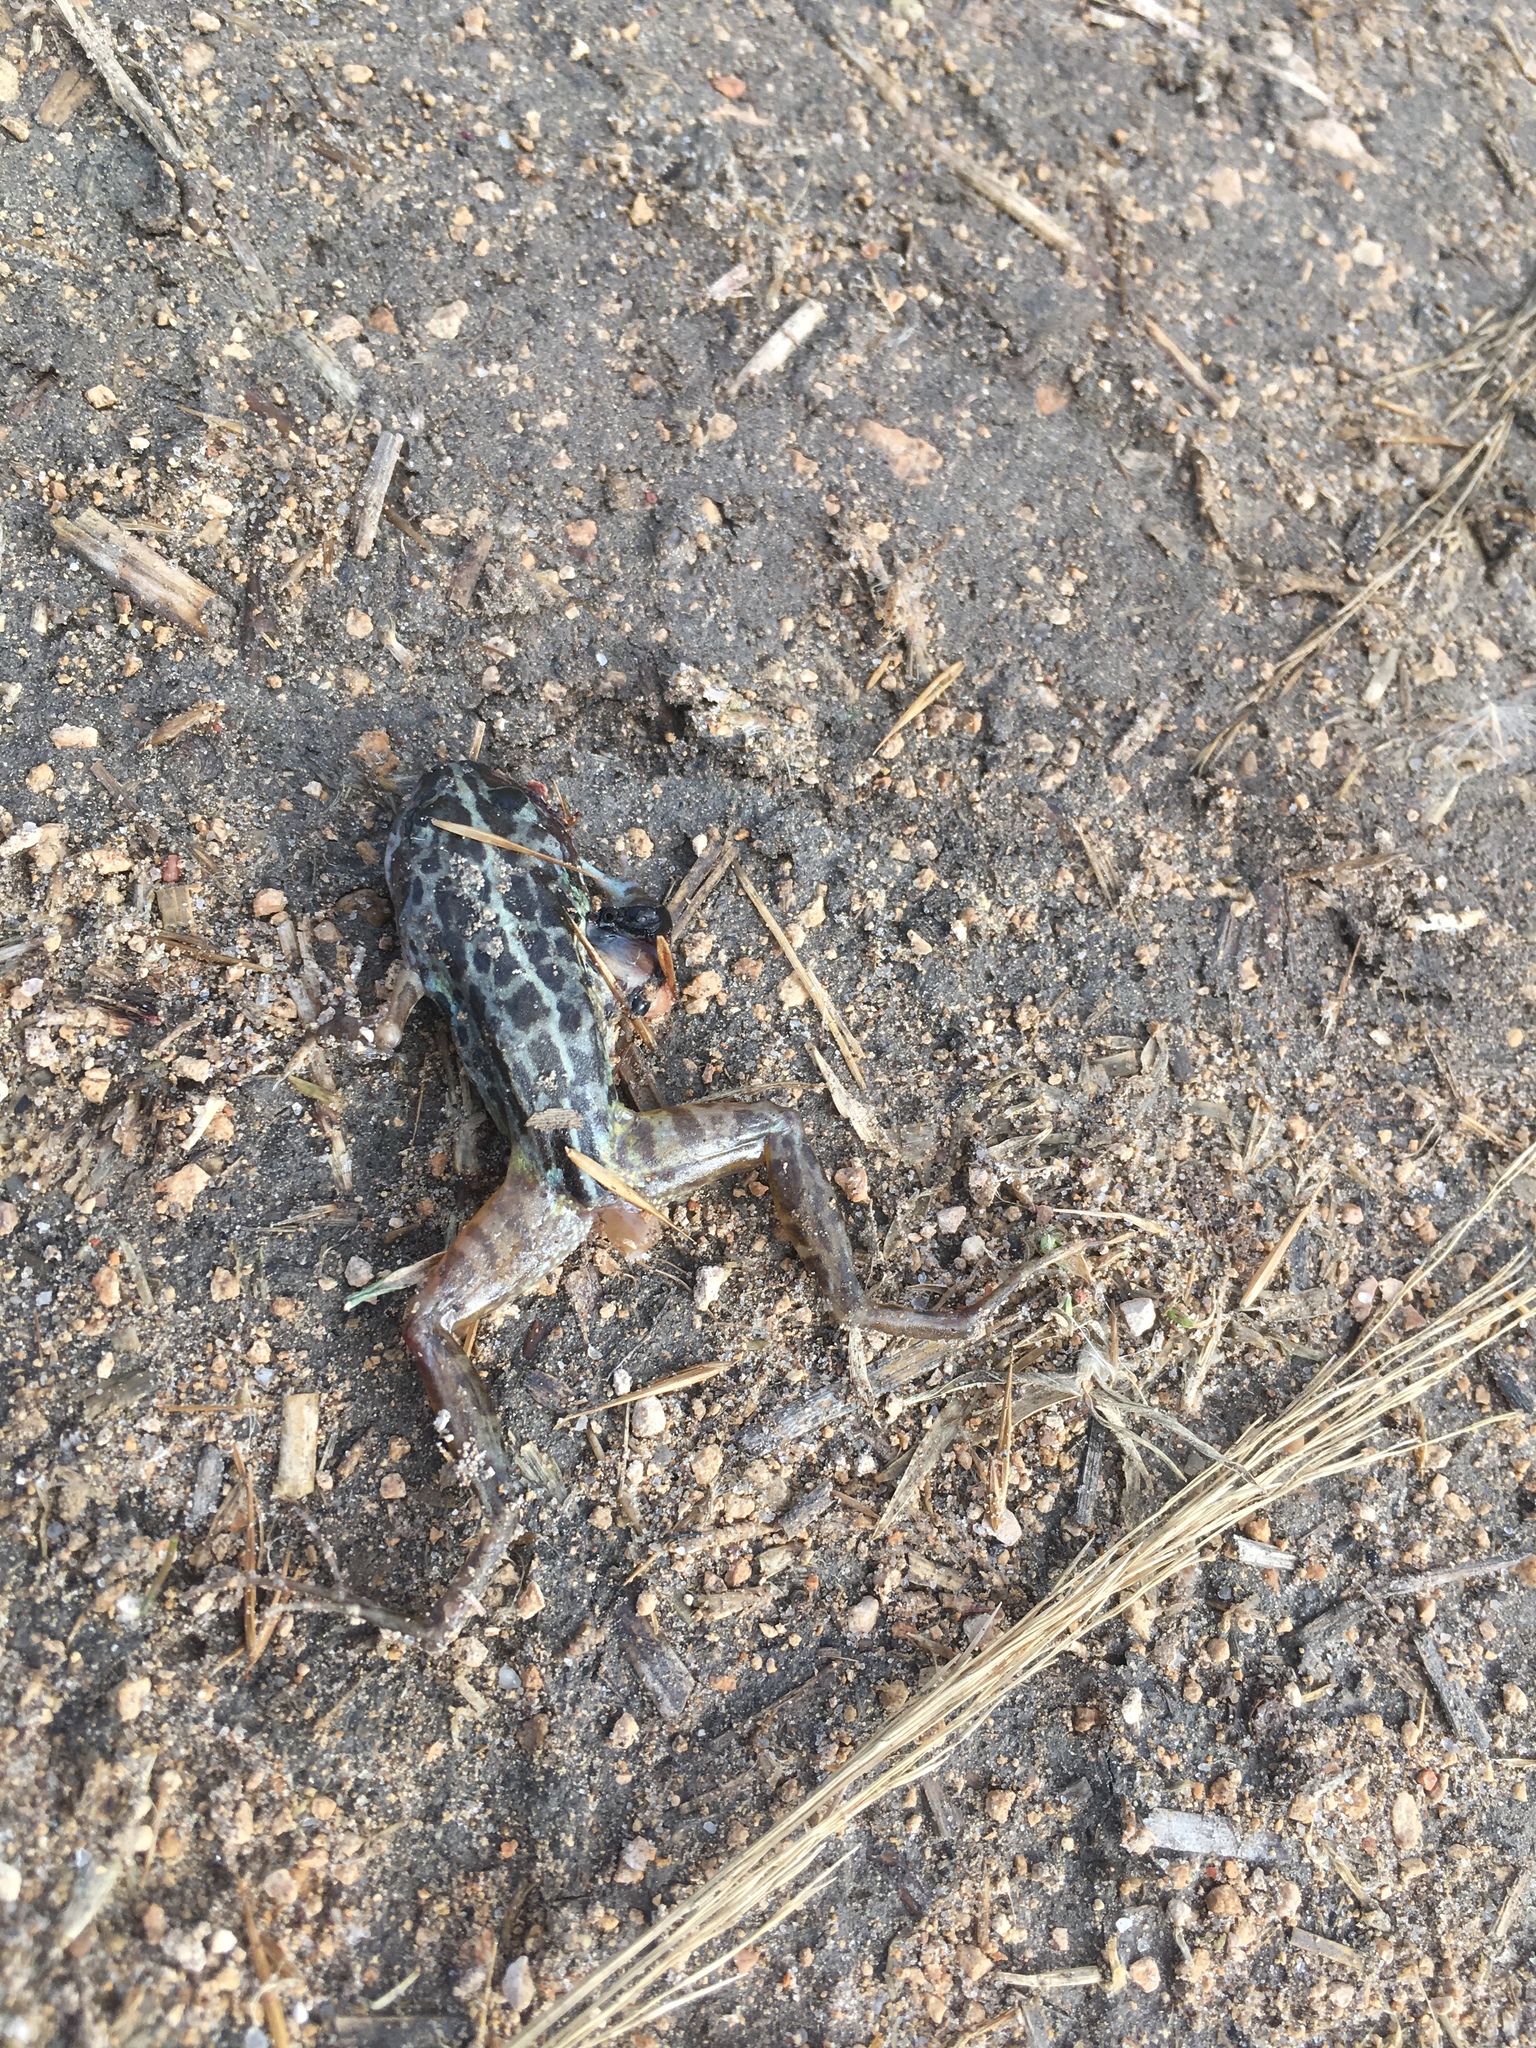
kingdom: Animalia
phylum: Chordata
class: Amphibia
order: Anura
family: Limnodynastidae
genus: Limnodynastes
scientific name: Limnodynastes tasmaniensis
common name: Spotted marsh frog
